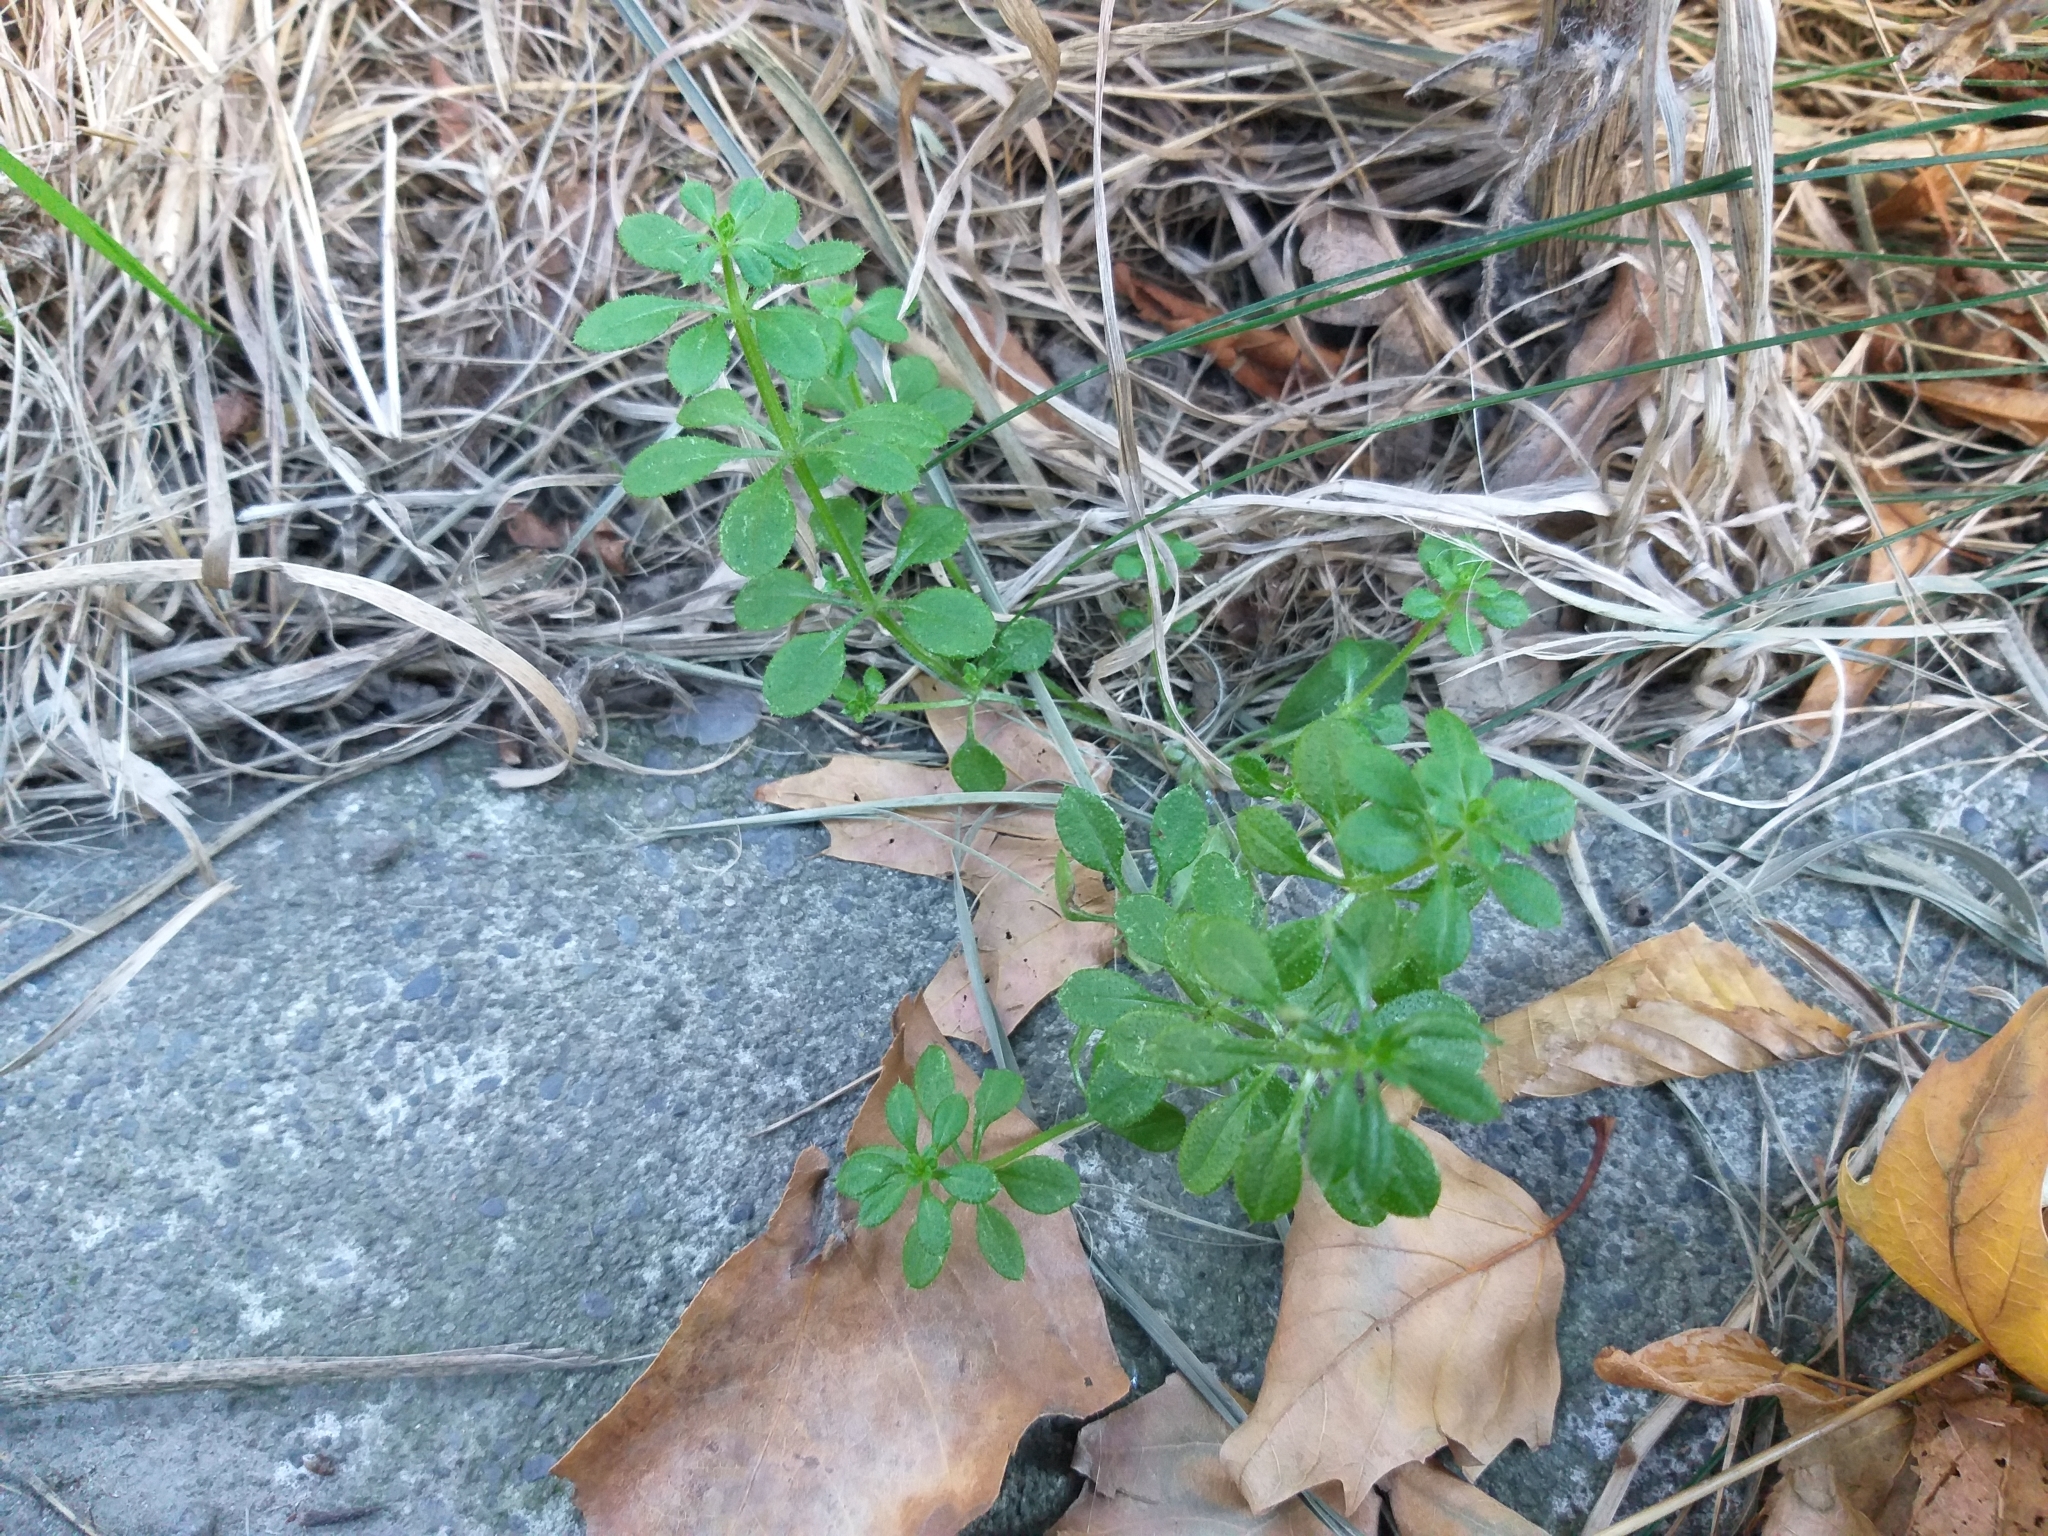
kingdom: Plantae
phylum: Tracheophyta
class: Magnoliopsida
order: Gentianales
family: Rubiaceae
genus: Galium
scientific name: Galium aparine
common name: Cleavers
